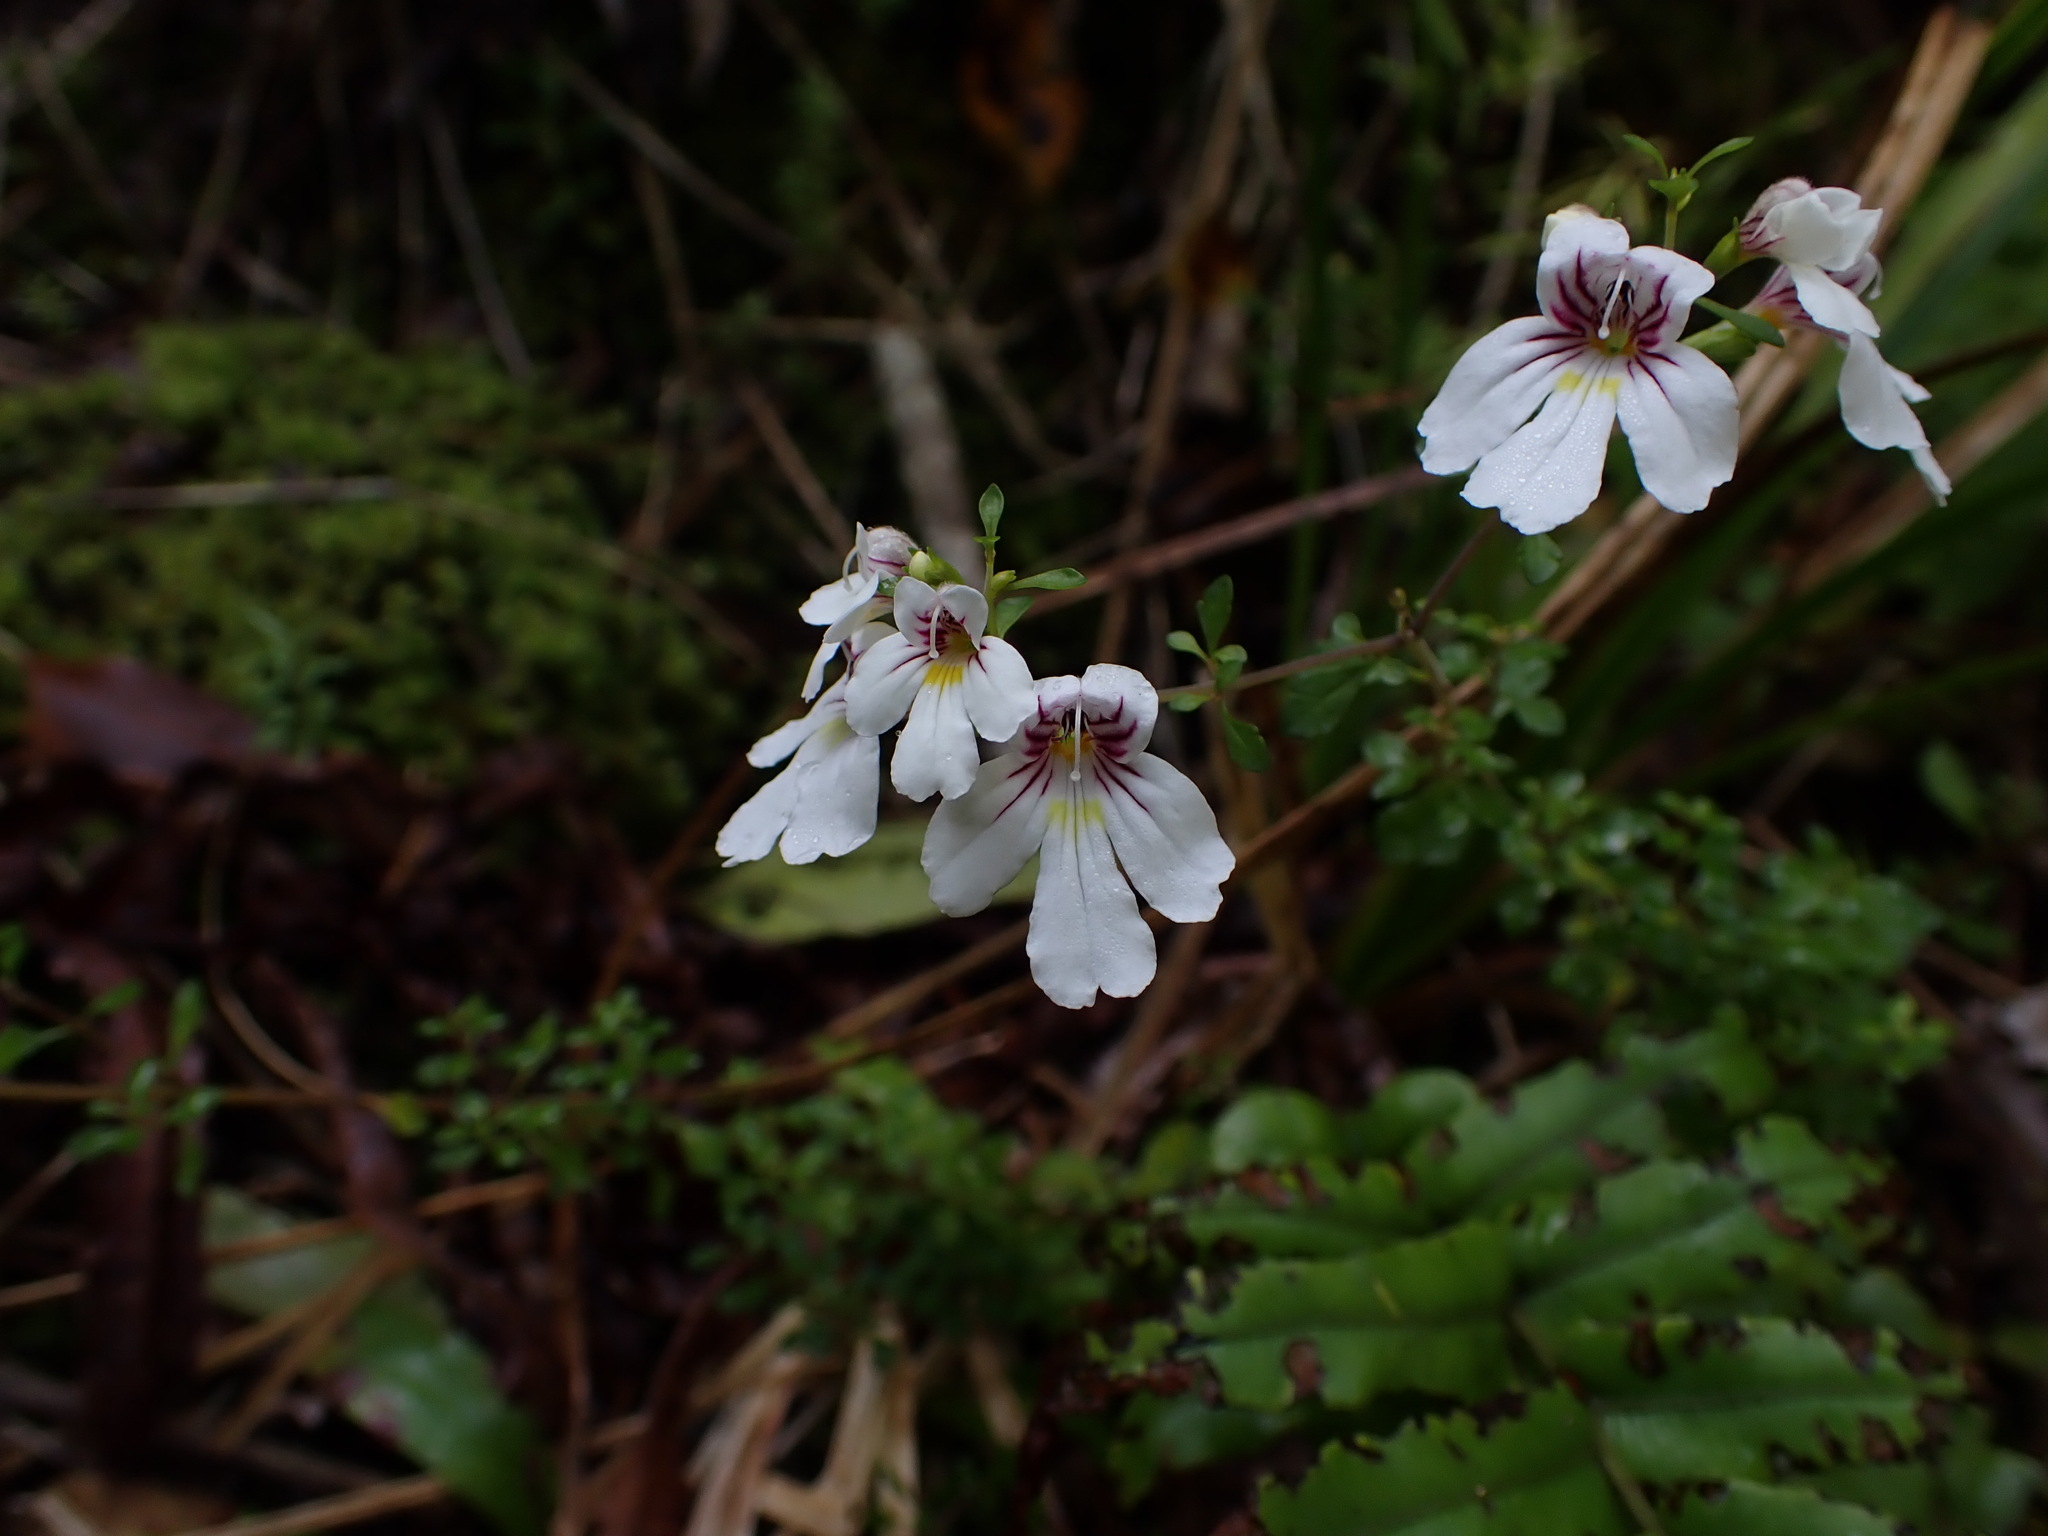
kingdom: Plantae
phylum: Tracheophyta
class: Magnoliopsida
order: Lamiales
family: Orobanchaceae
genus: Euphrasia
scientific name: Euphrasia cuneata
